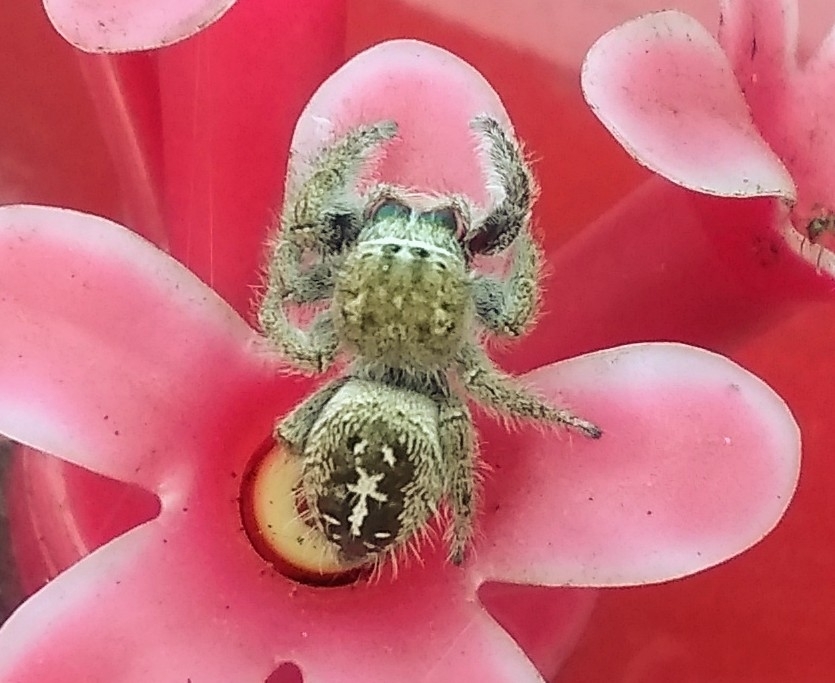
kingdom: Animalia
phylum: Arthropoda
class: Arachnida
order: Araneae
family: Salticidae
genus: Phidippus
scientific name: Phidippus texanus
